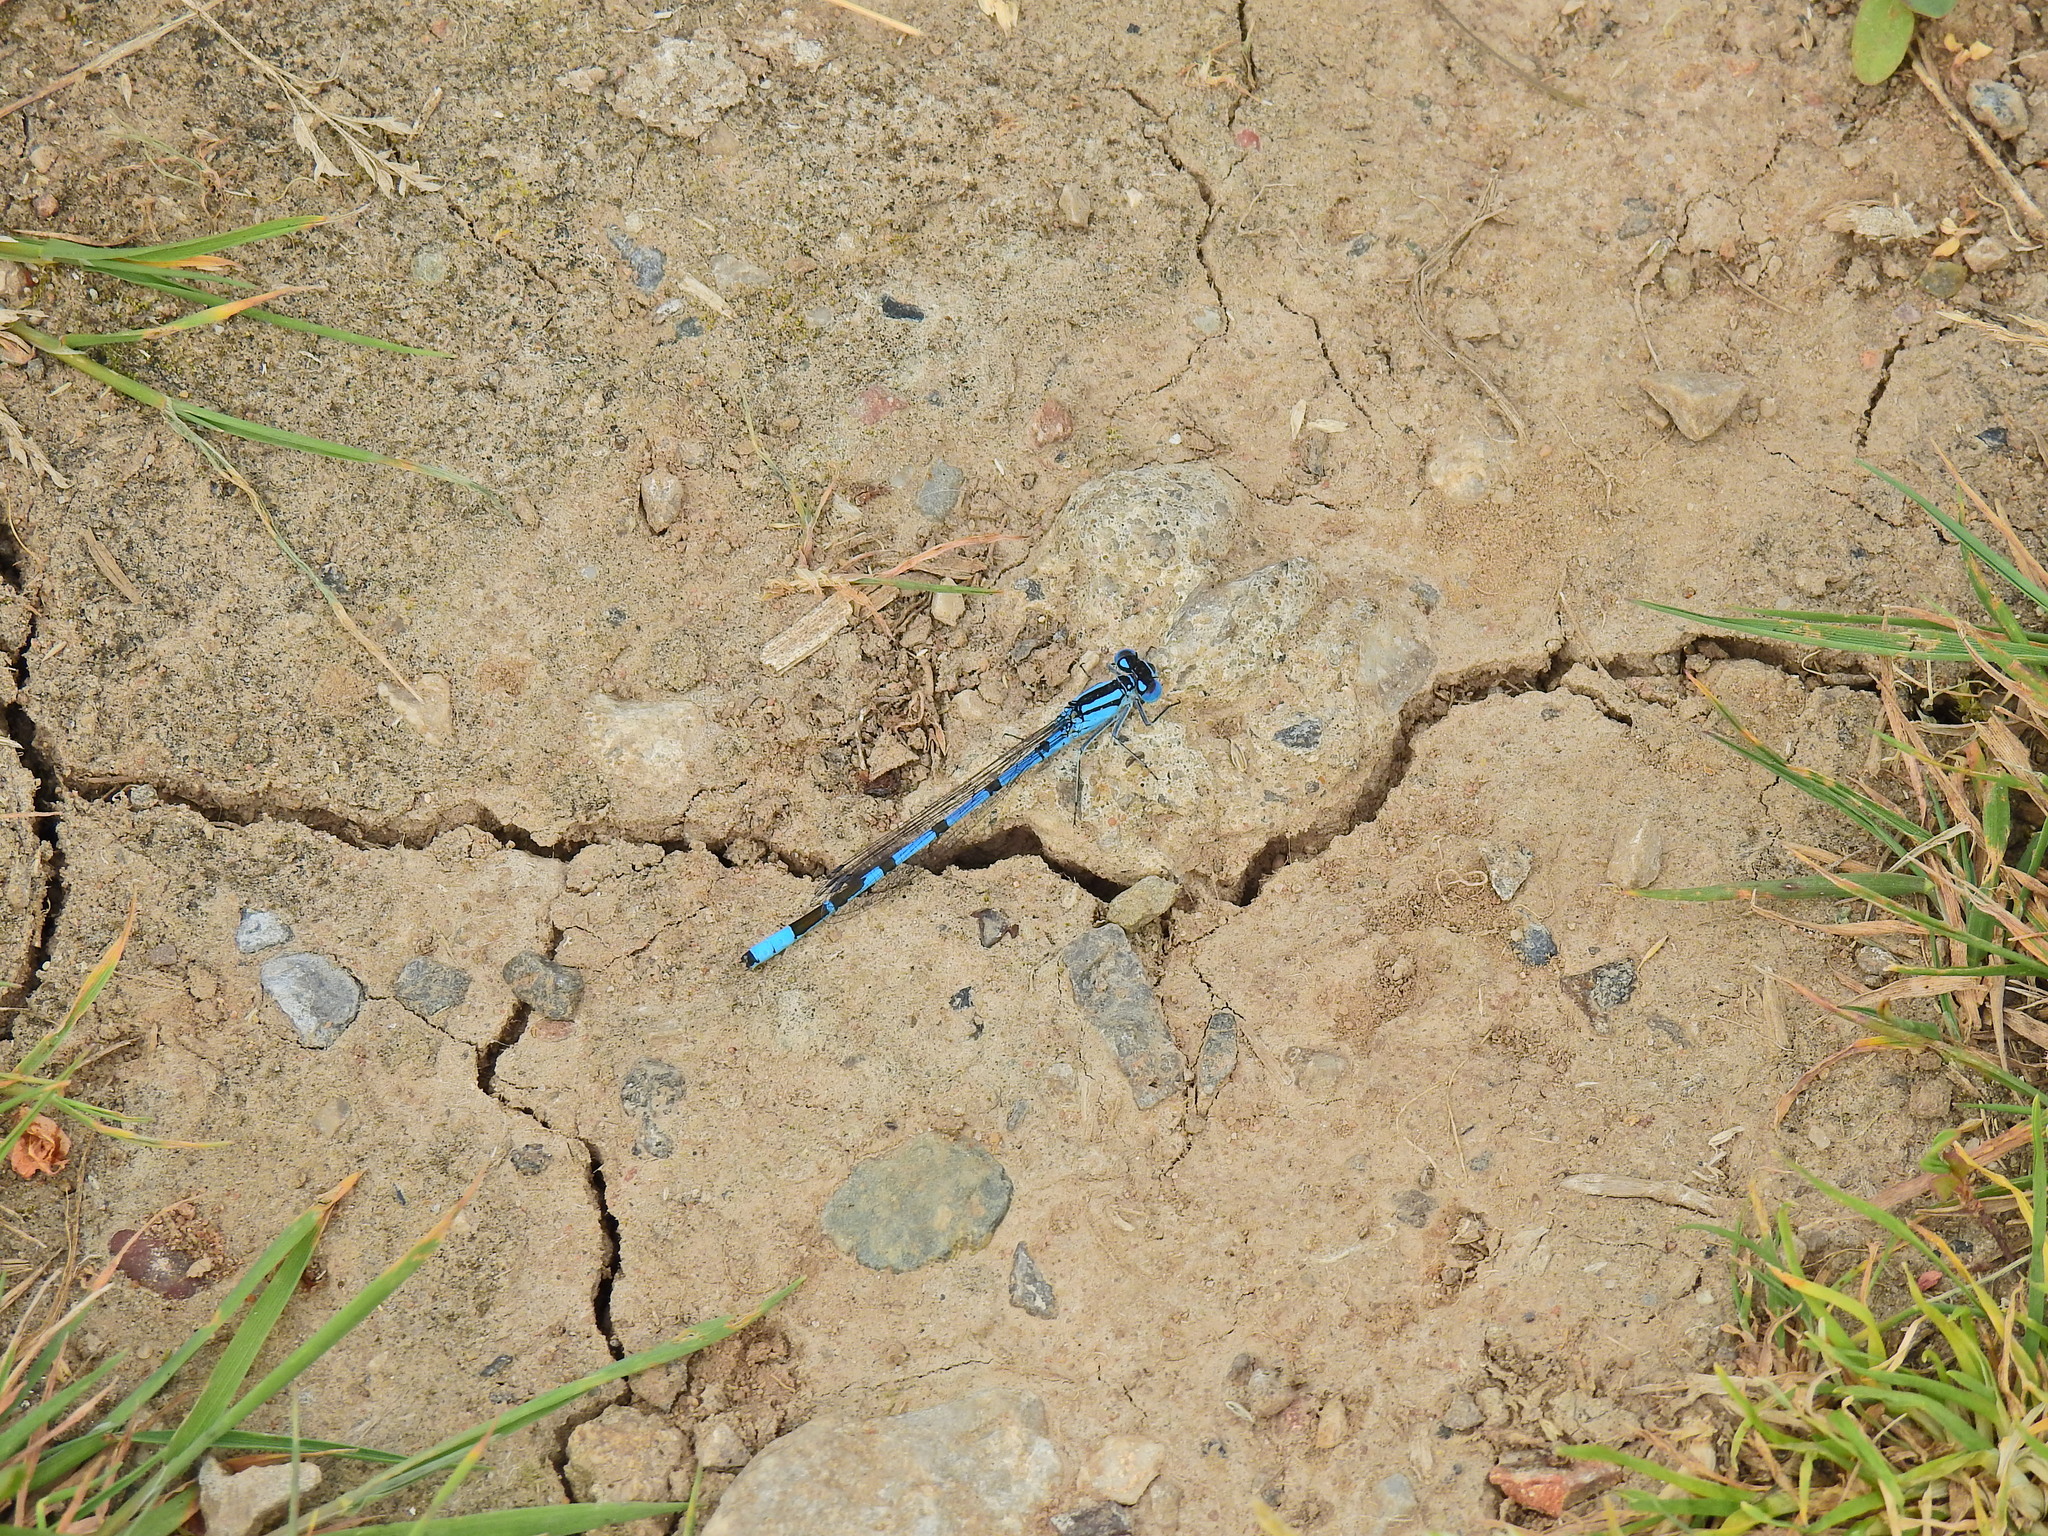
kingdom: Animalia
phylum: Arthropoda
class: Insecta
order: Odonata
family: Coenagrionidae
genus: Enallagma
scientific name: Enallagma cyathigerum
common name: Common blue damselfly
